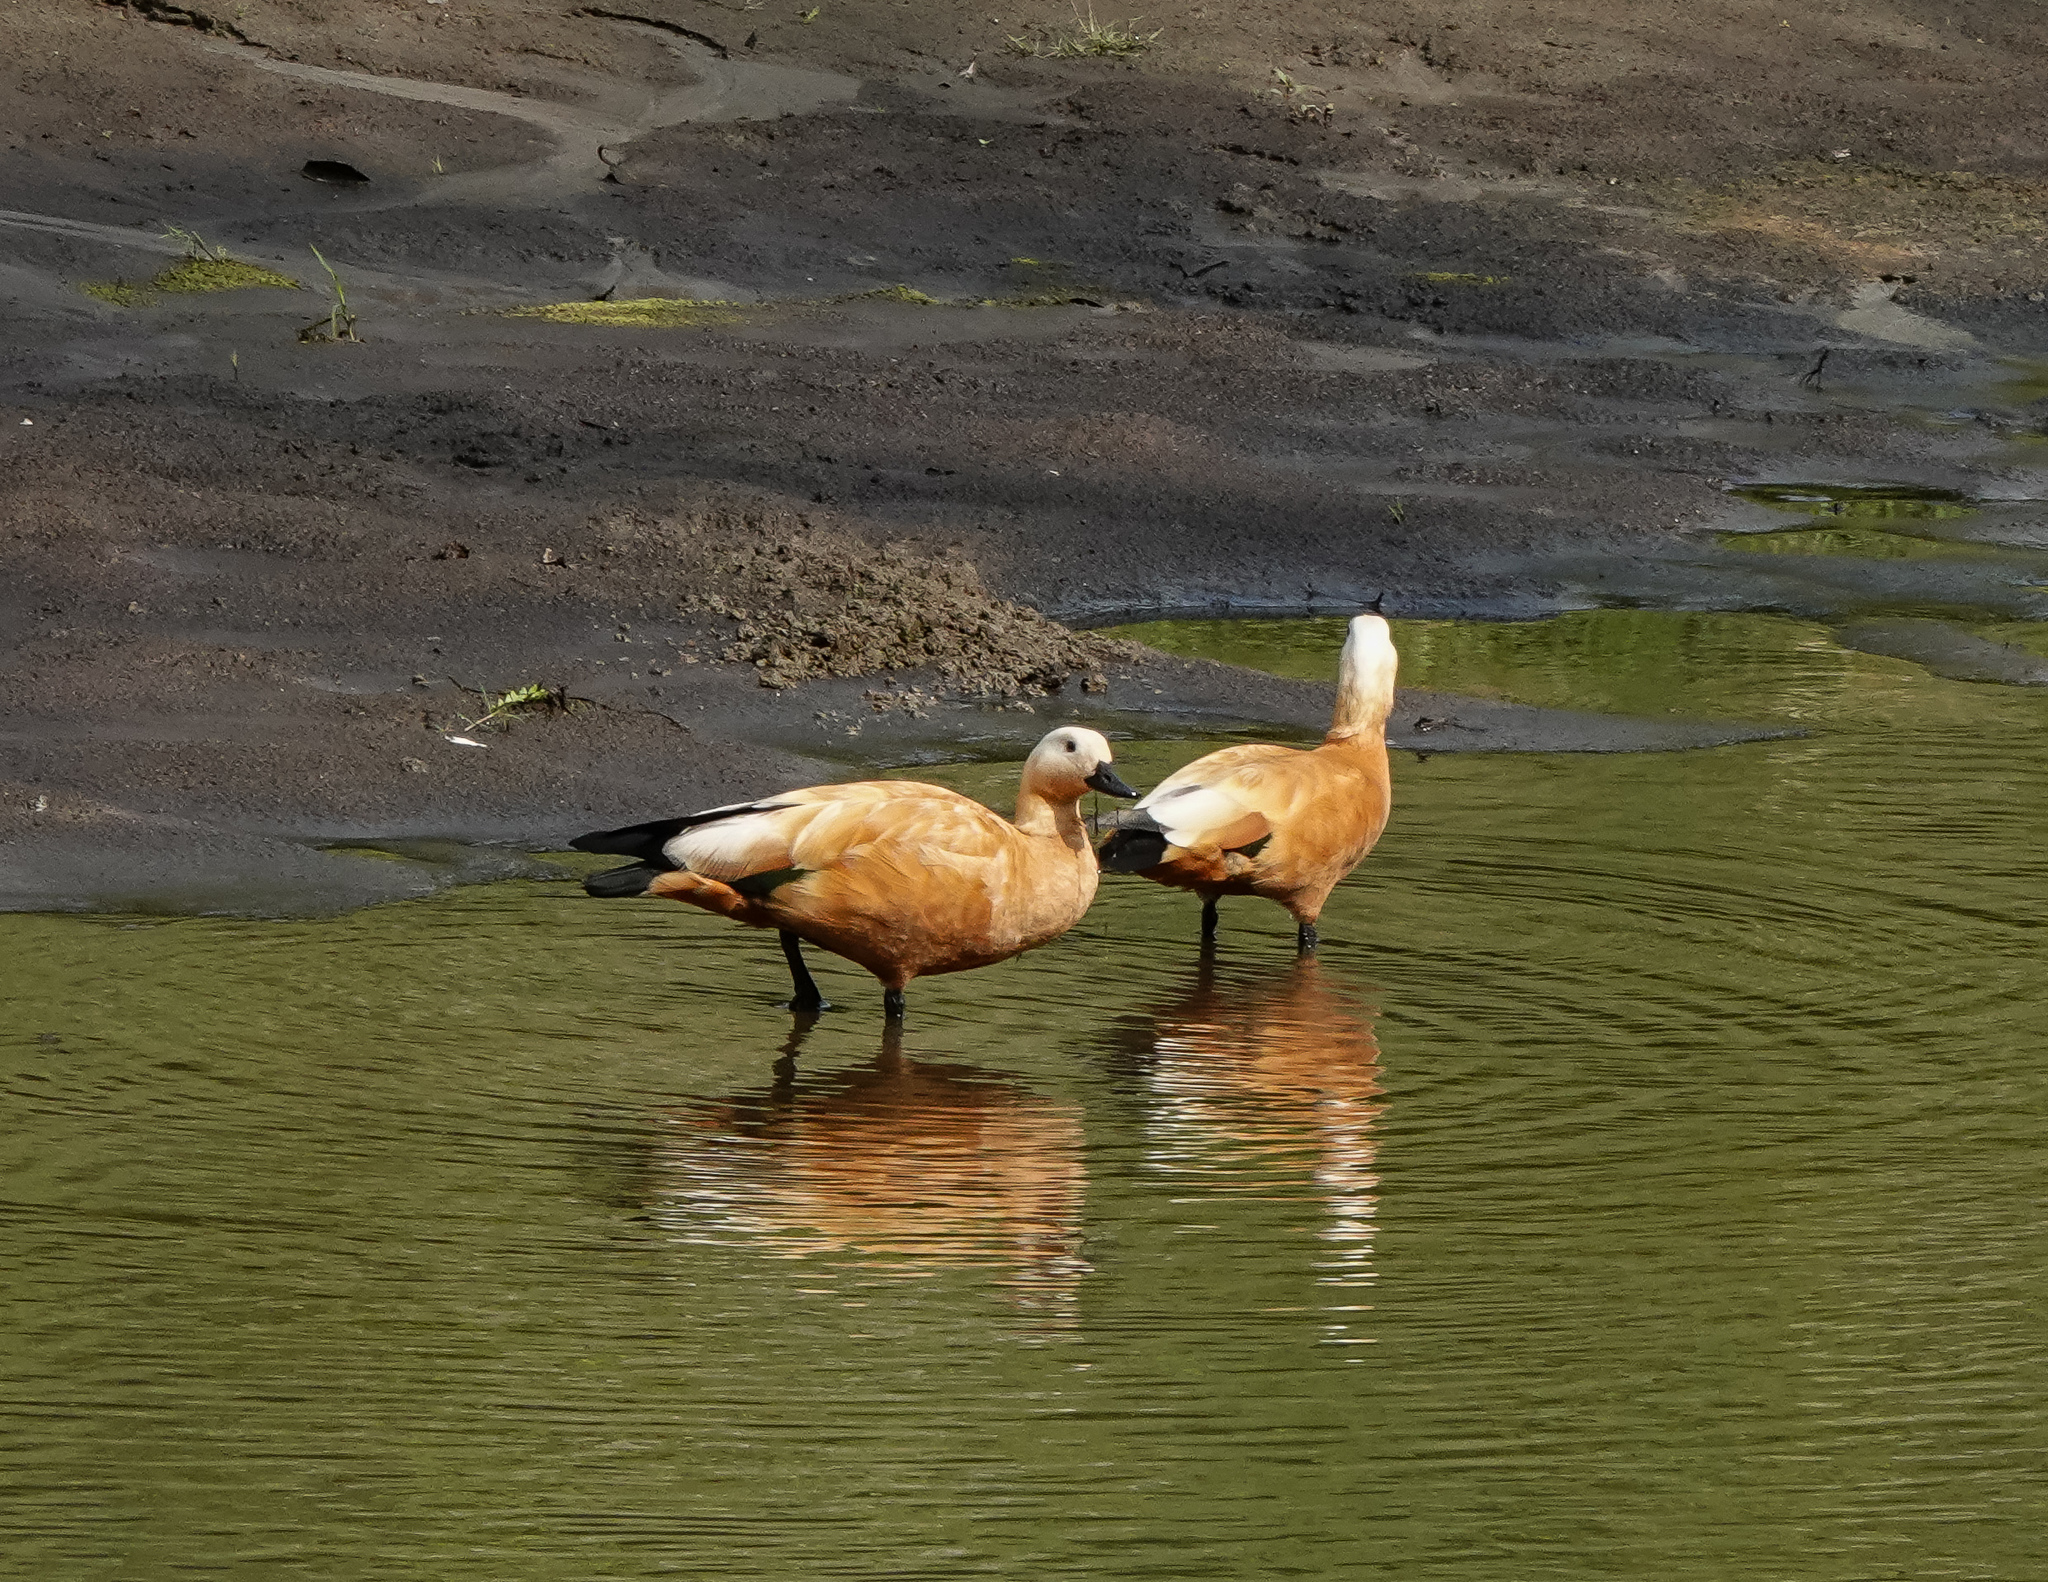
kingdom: Animalia
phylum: Chordata
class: Aves
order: Anseriformes
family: Anatidae
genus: Tadorna
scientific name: Tadorna ferruginea
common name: Ruddy shelduck
